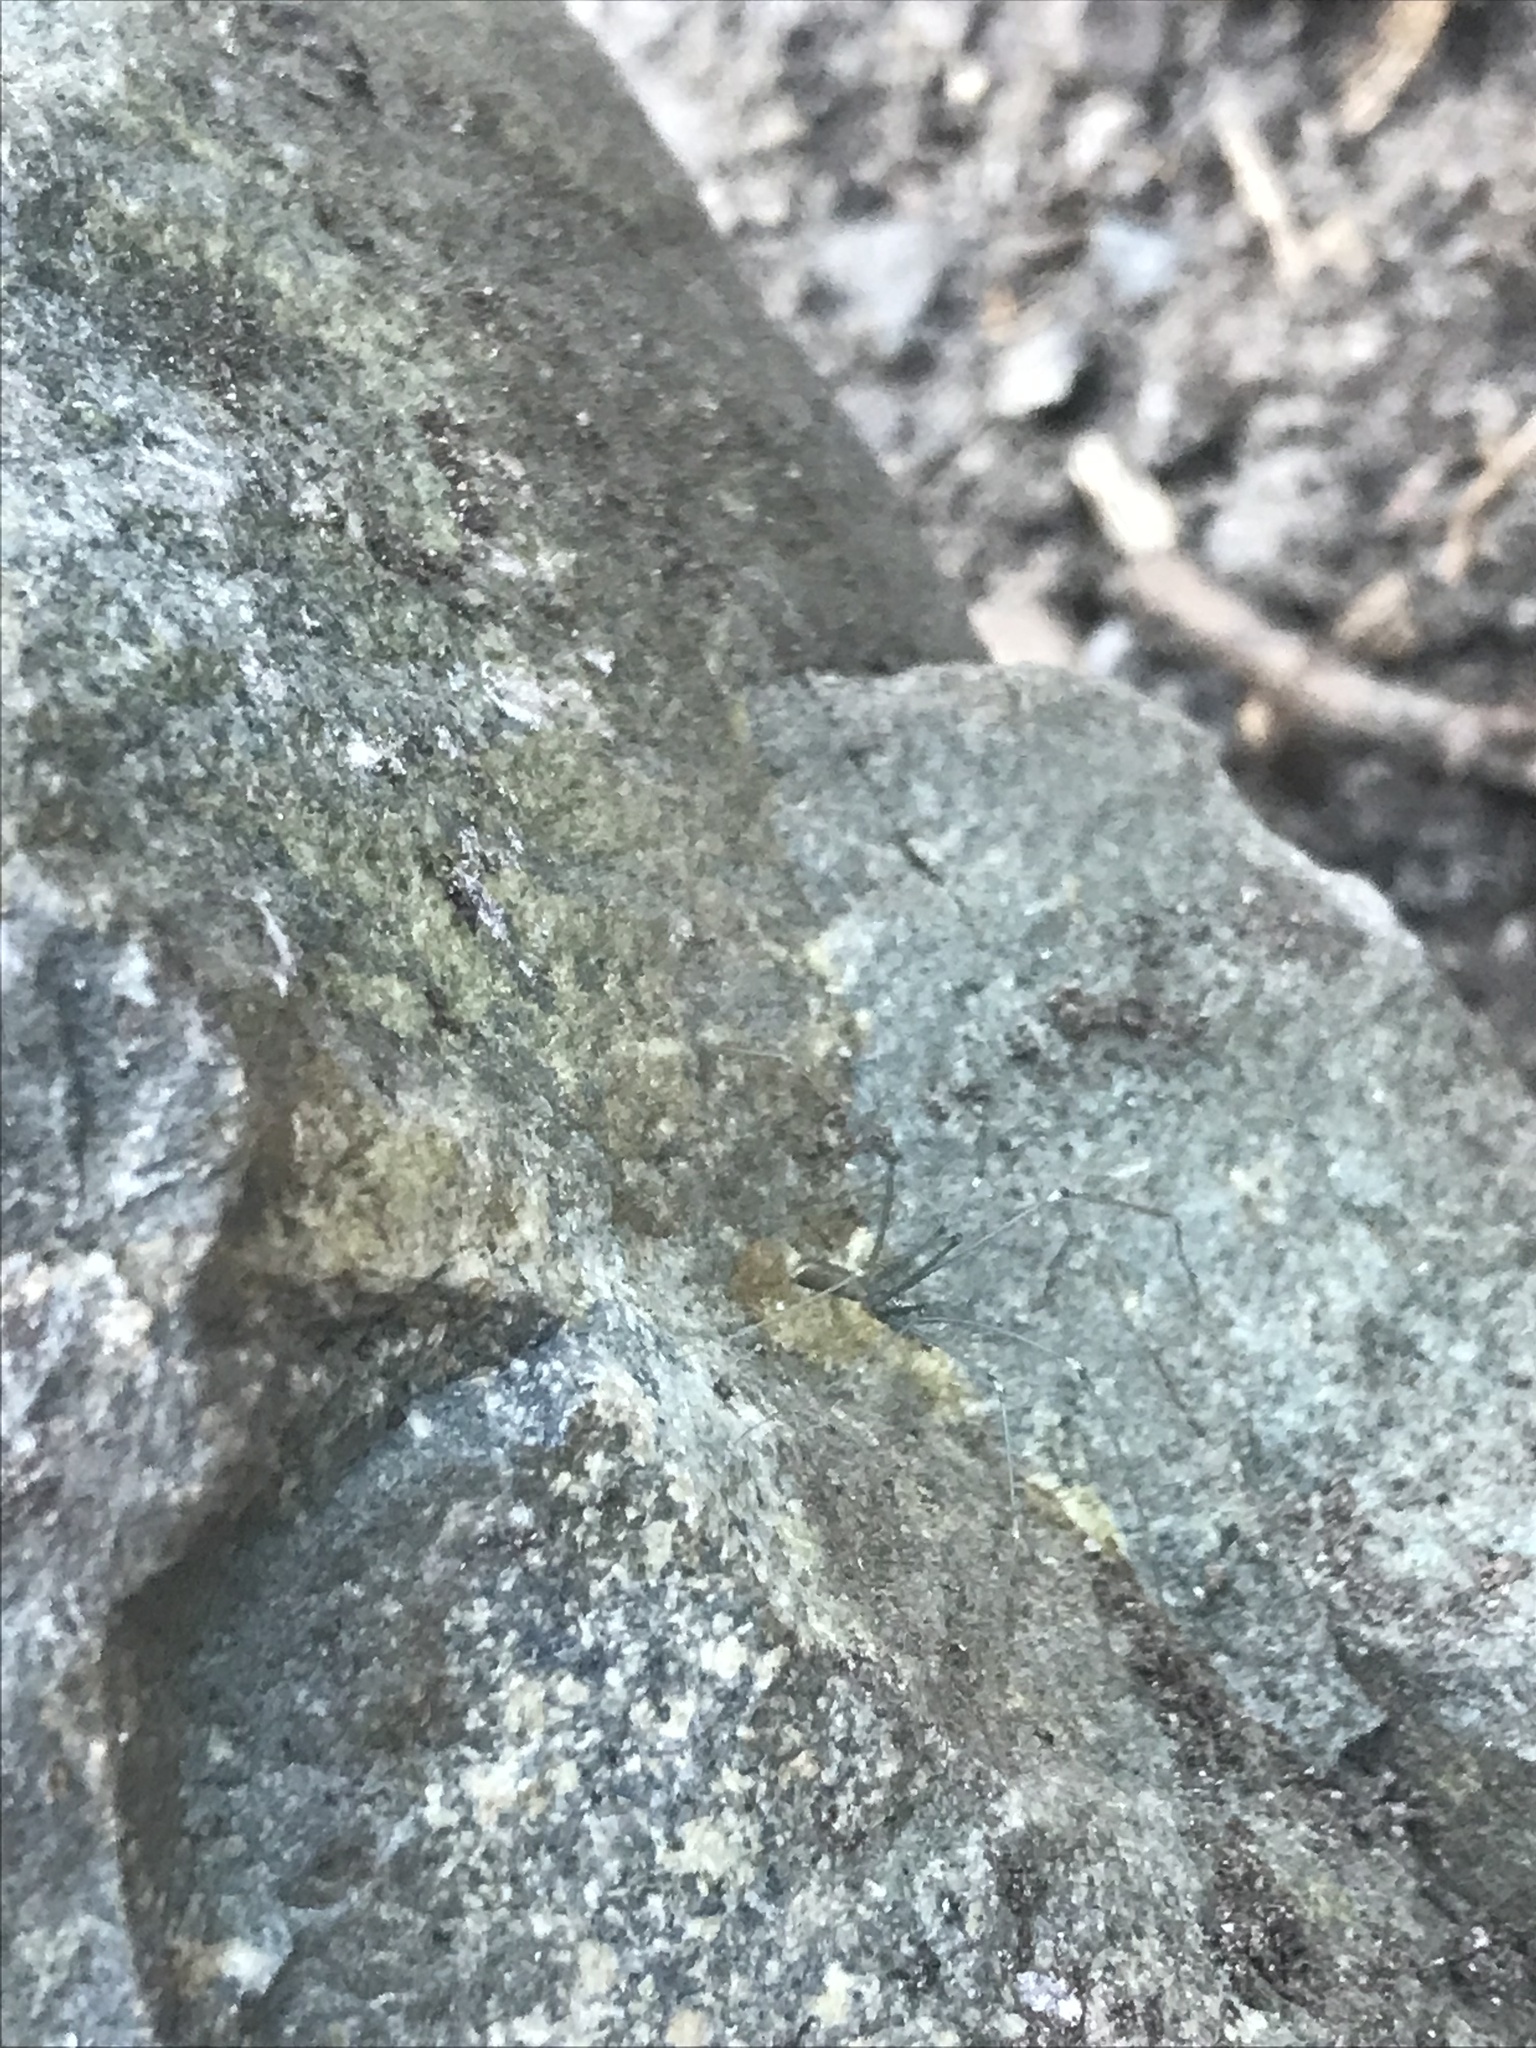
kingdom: Animalia
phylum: Arthropoda
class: Arachnida
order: Araneae
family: Pholcidae
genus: Pholcus
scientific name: Pholcus opilionoides
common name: Daddylongleg spider
